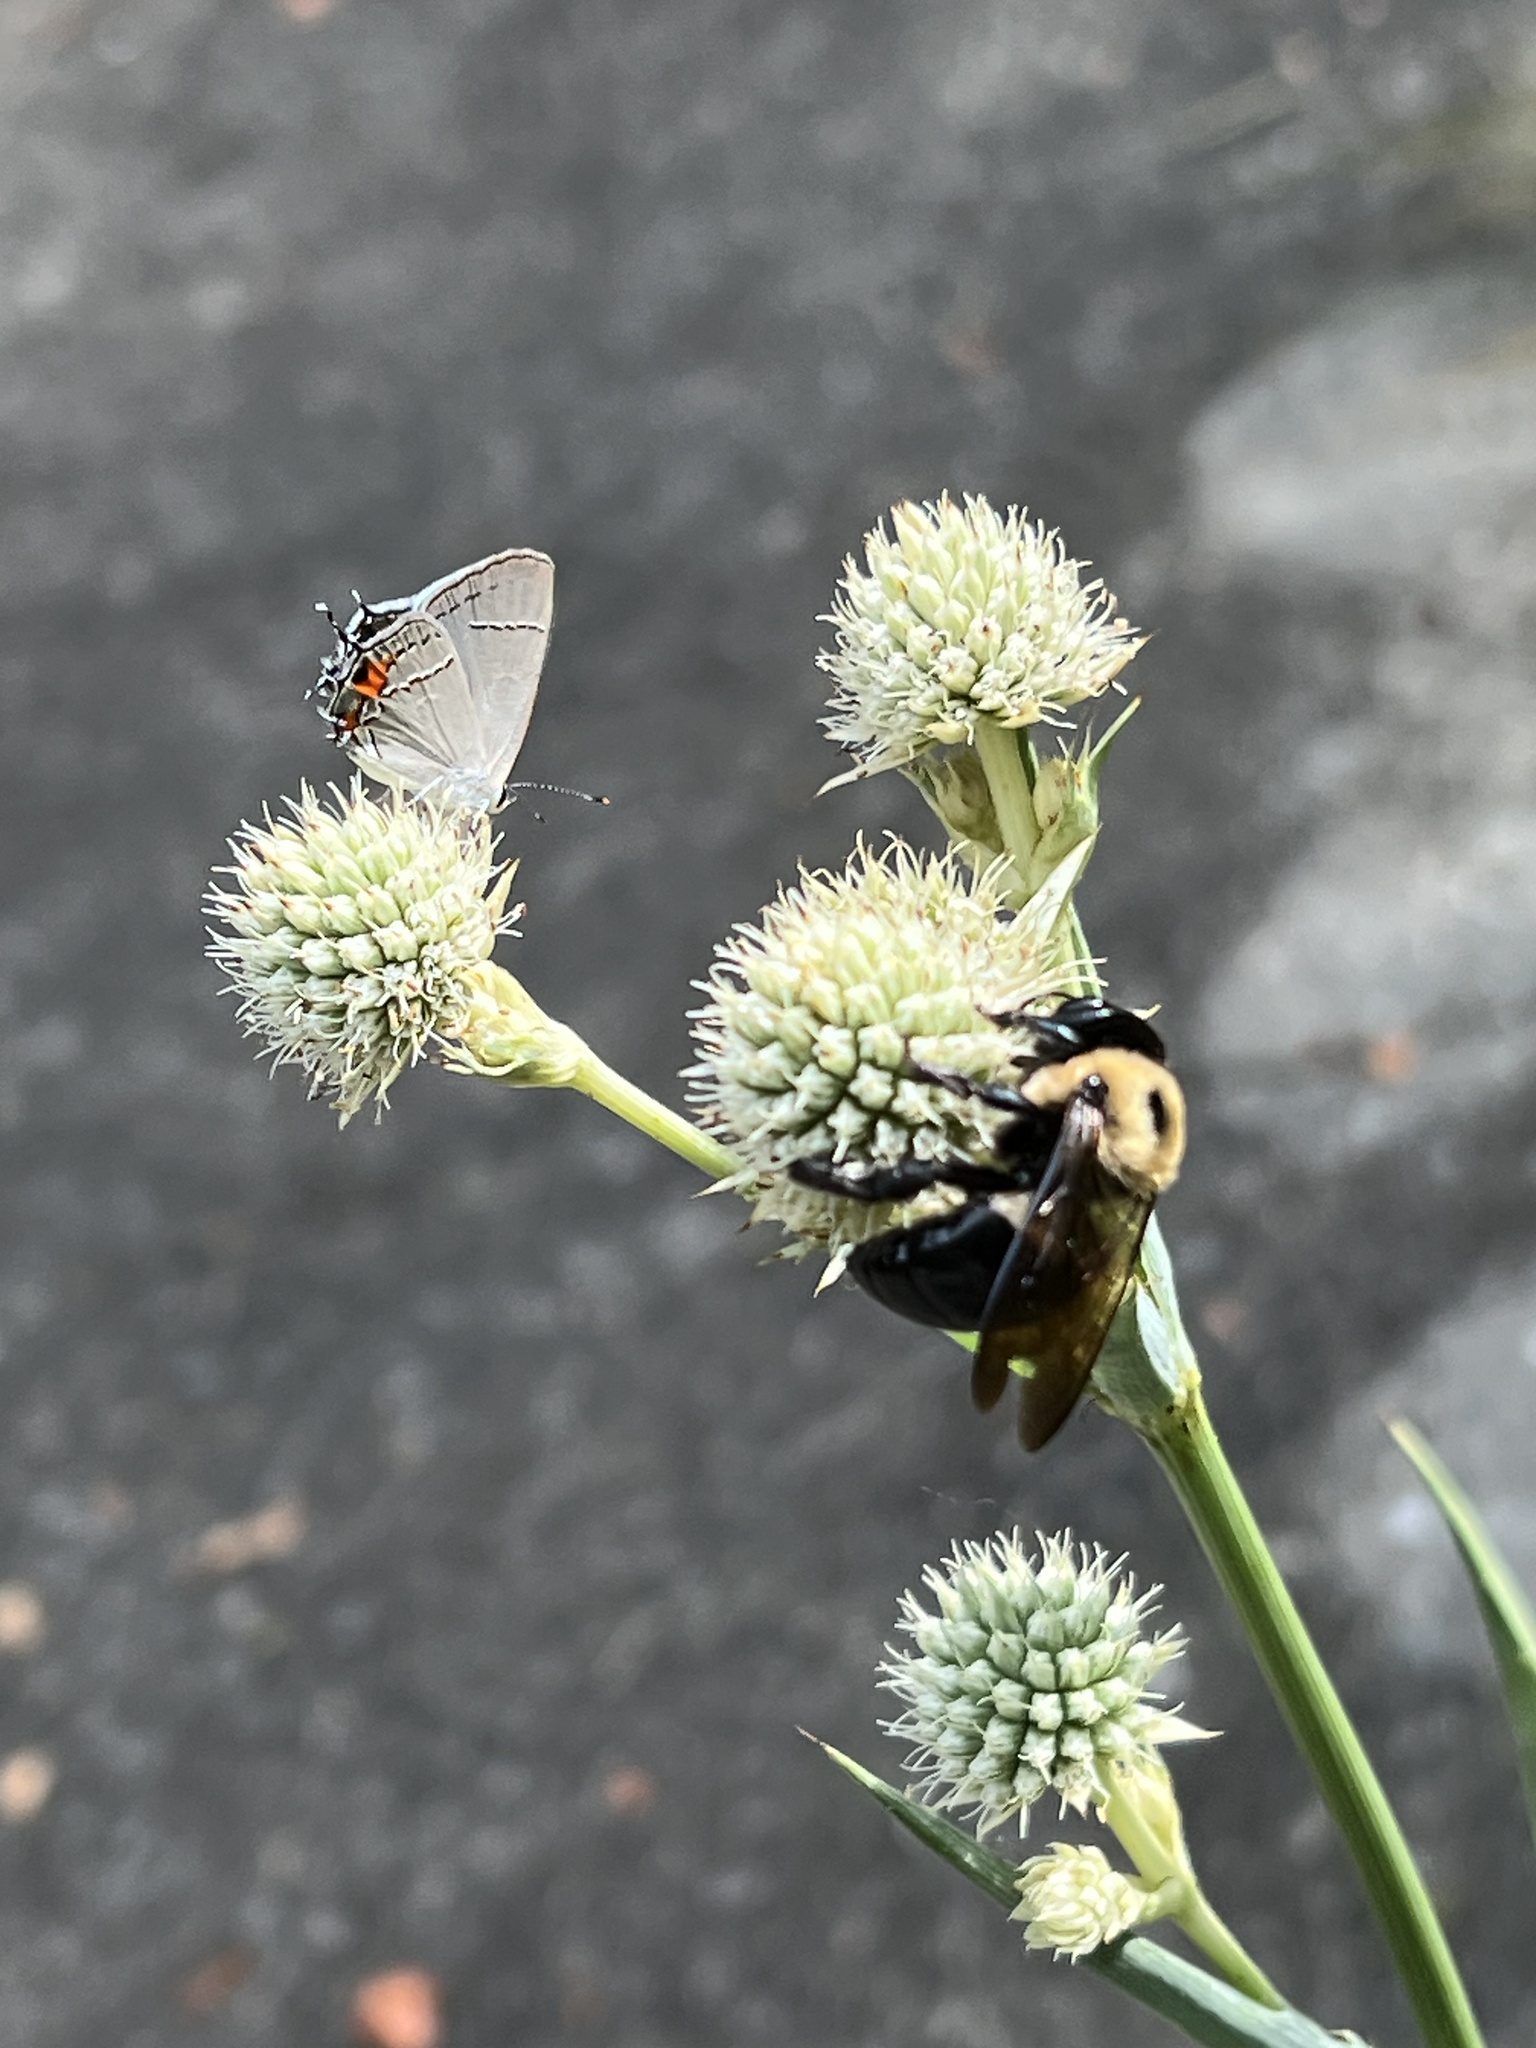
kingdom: Animalia
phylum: Arthropoda
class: Insecta
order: Hymenoptera
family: Apidae
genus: Xylocopa
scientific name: Xylocopa virginica
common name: Carpenter bee
